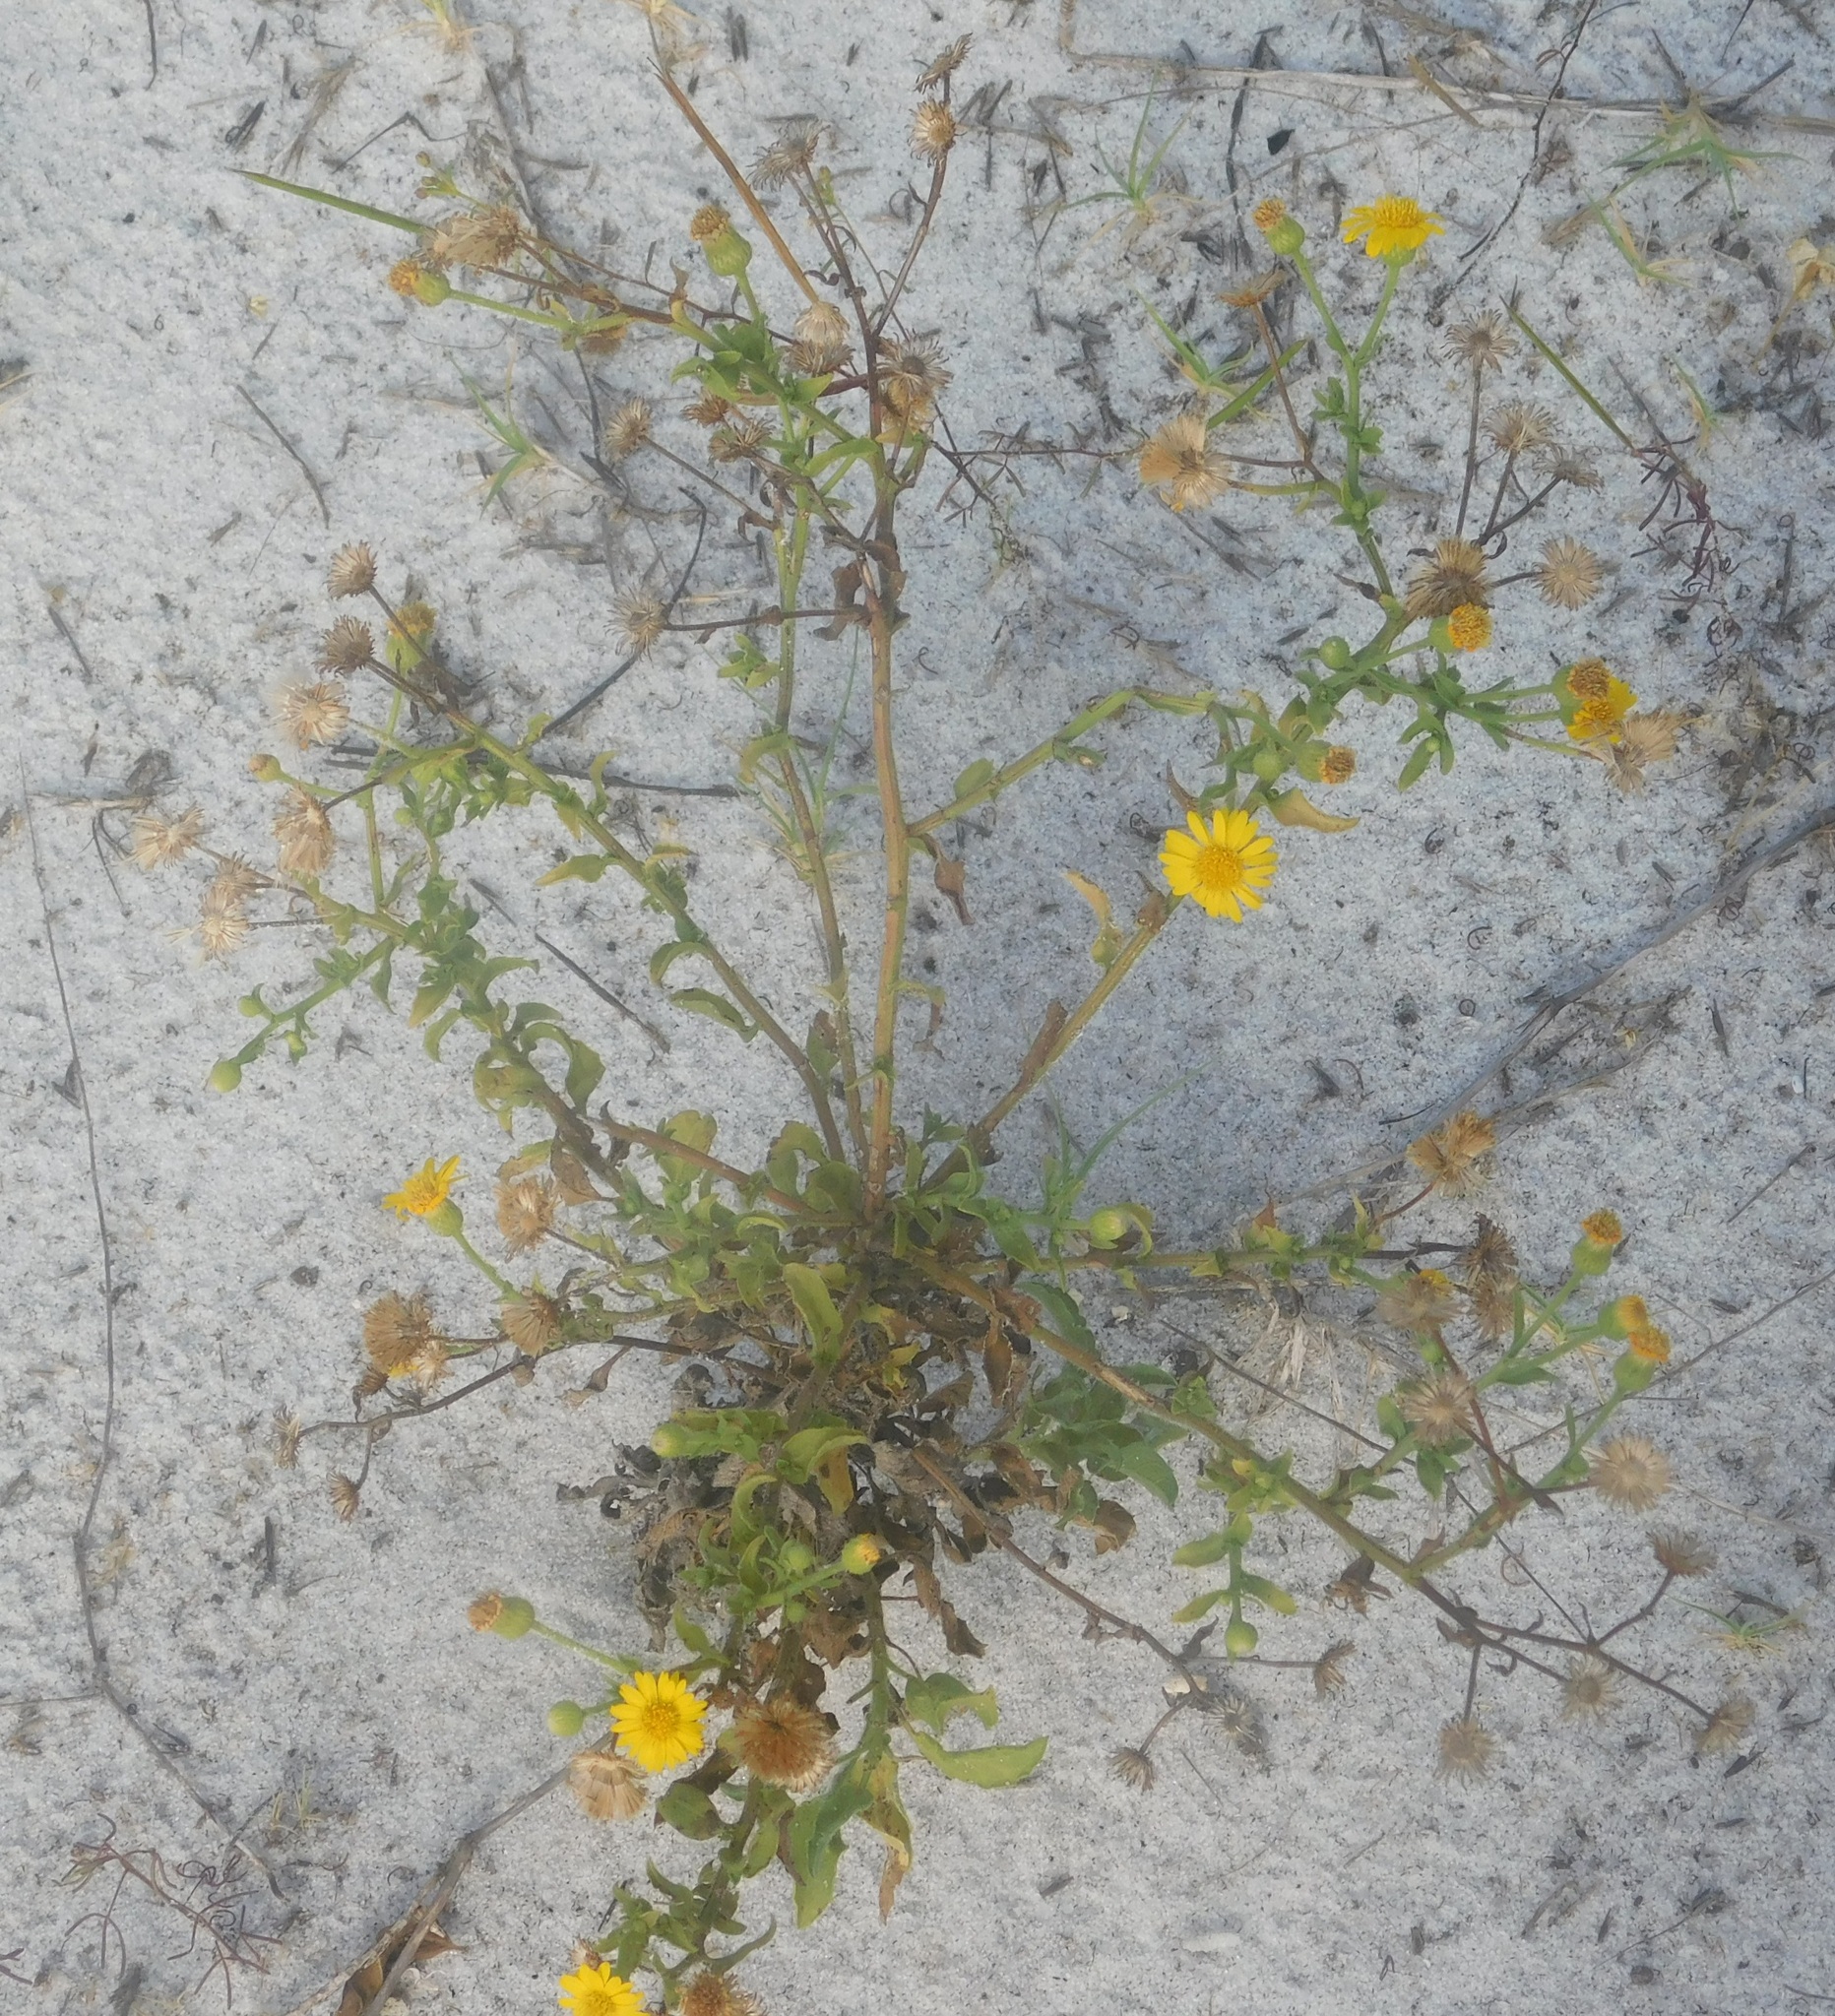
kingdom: Plantae
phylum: Tracheophyta
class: Magnoliopsida
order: Asterales
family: Asteraceae
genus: Heterotheca
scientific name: Heterotheca subaxillaris
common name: Camphorweed
